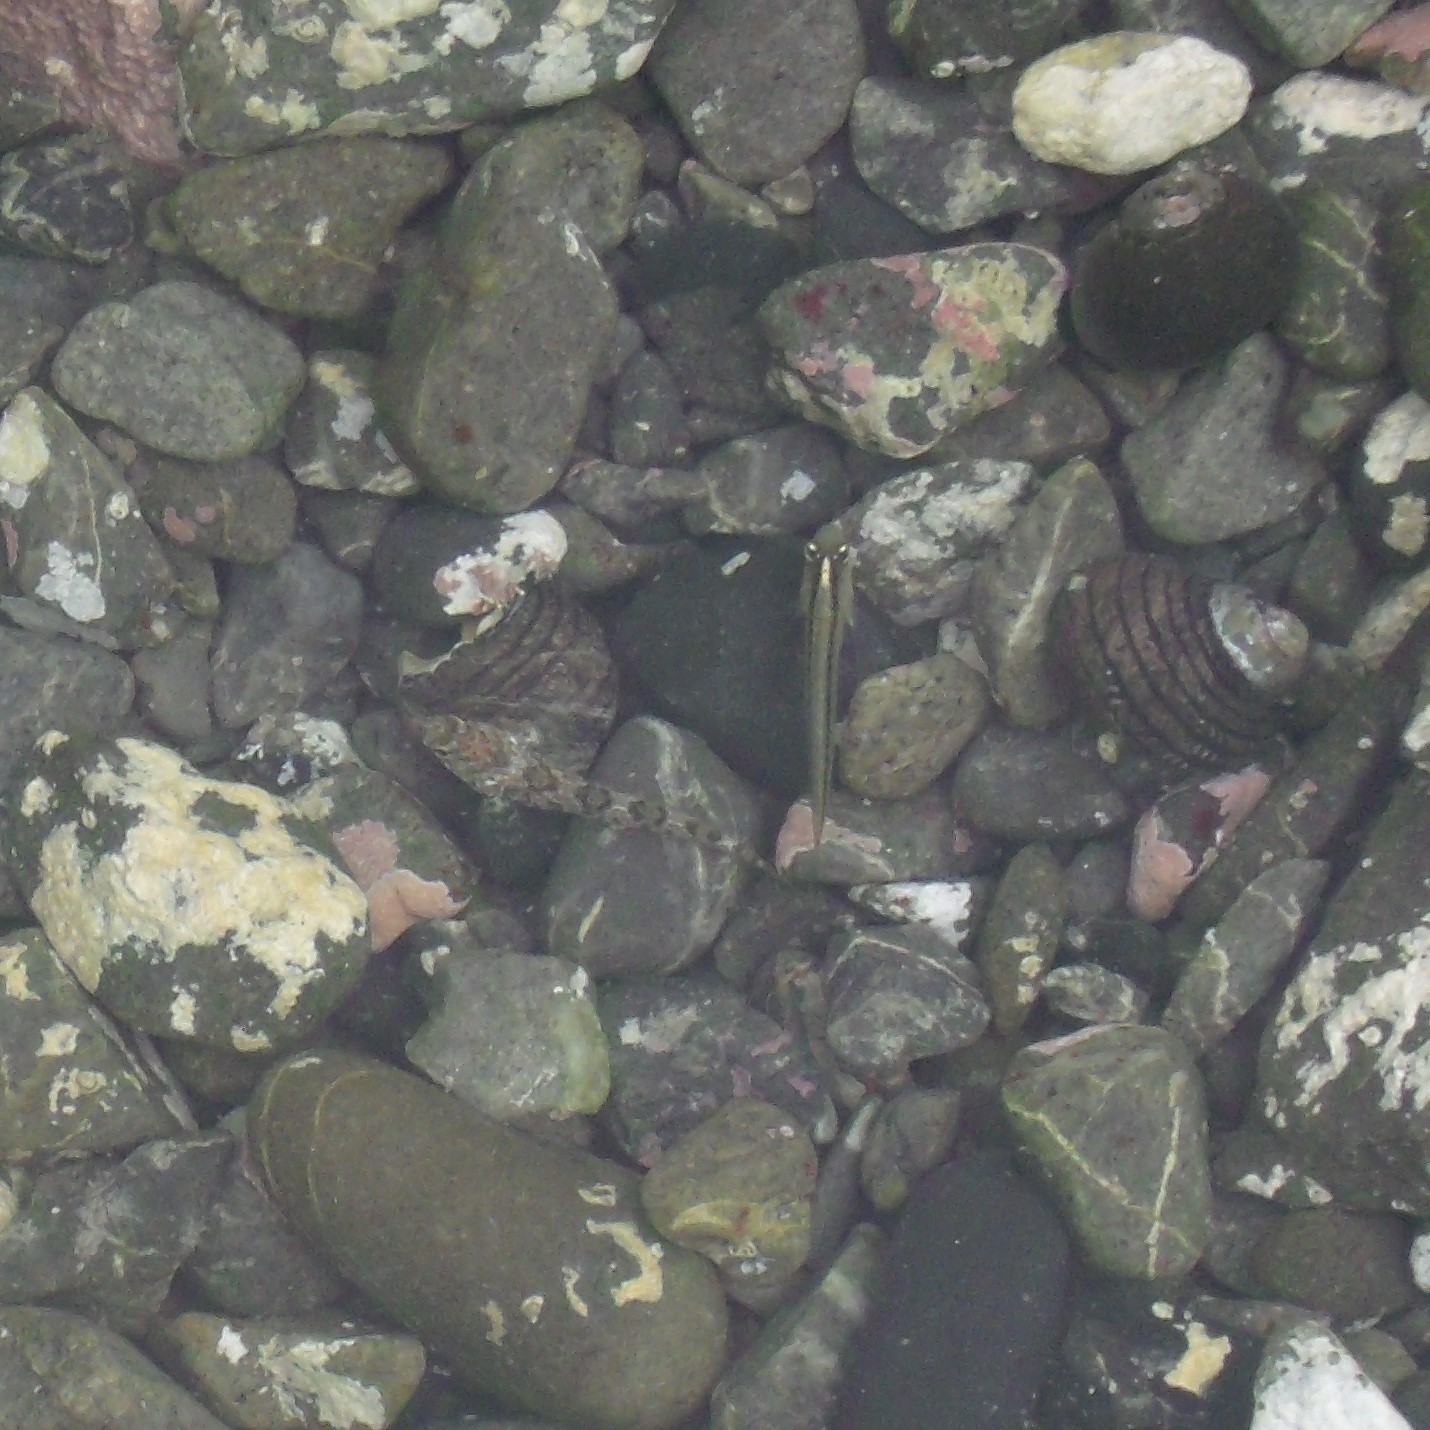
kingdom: Animalia
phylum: Chordata
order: Perciformes
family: Tripterygiidae
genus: Forsterygion
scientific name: Forsterygion lapillum
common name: Common triplefin
